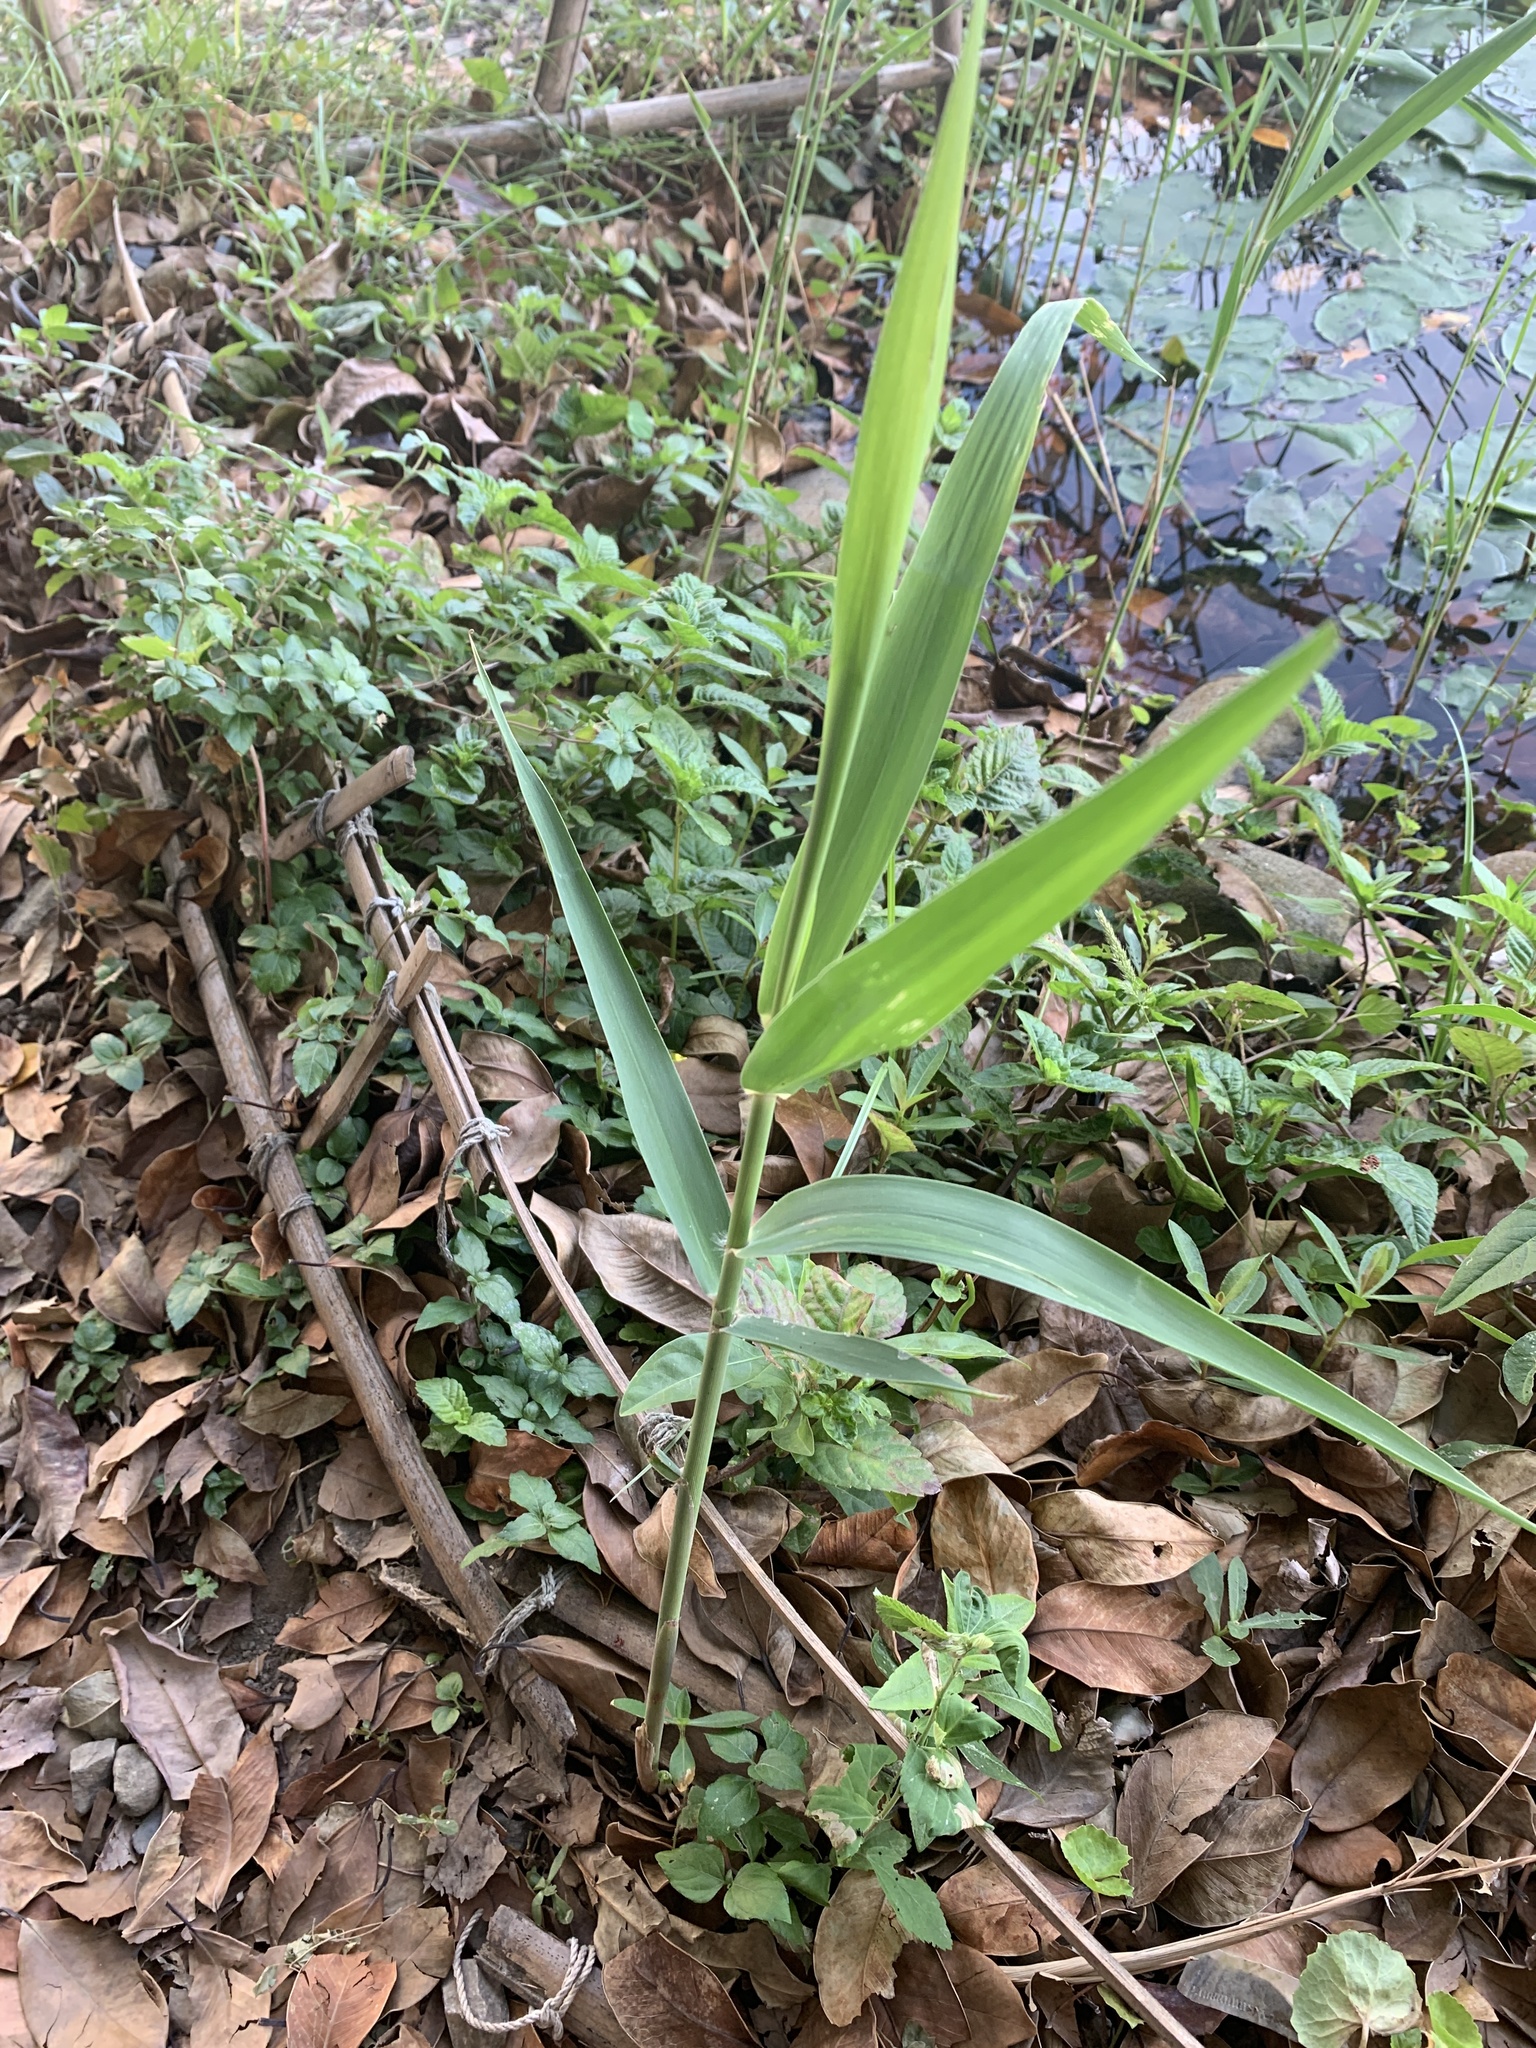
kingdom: Plantae
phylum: Tracheophyta
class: Liliopsida
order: Poales
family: Poaceae
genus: Phragmites
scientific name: Phragmites australis
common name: Common reed
